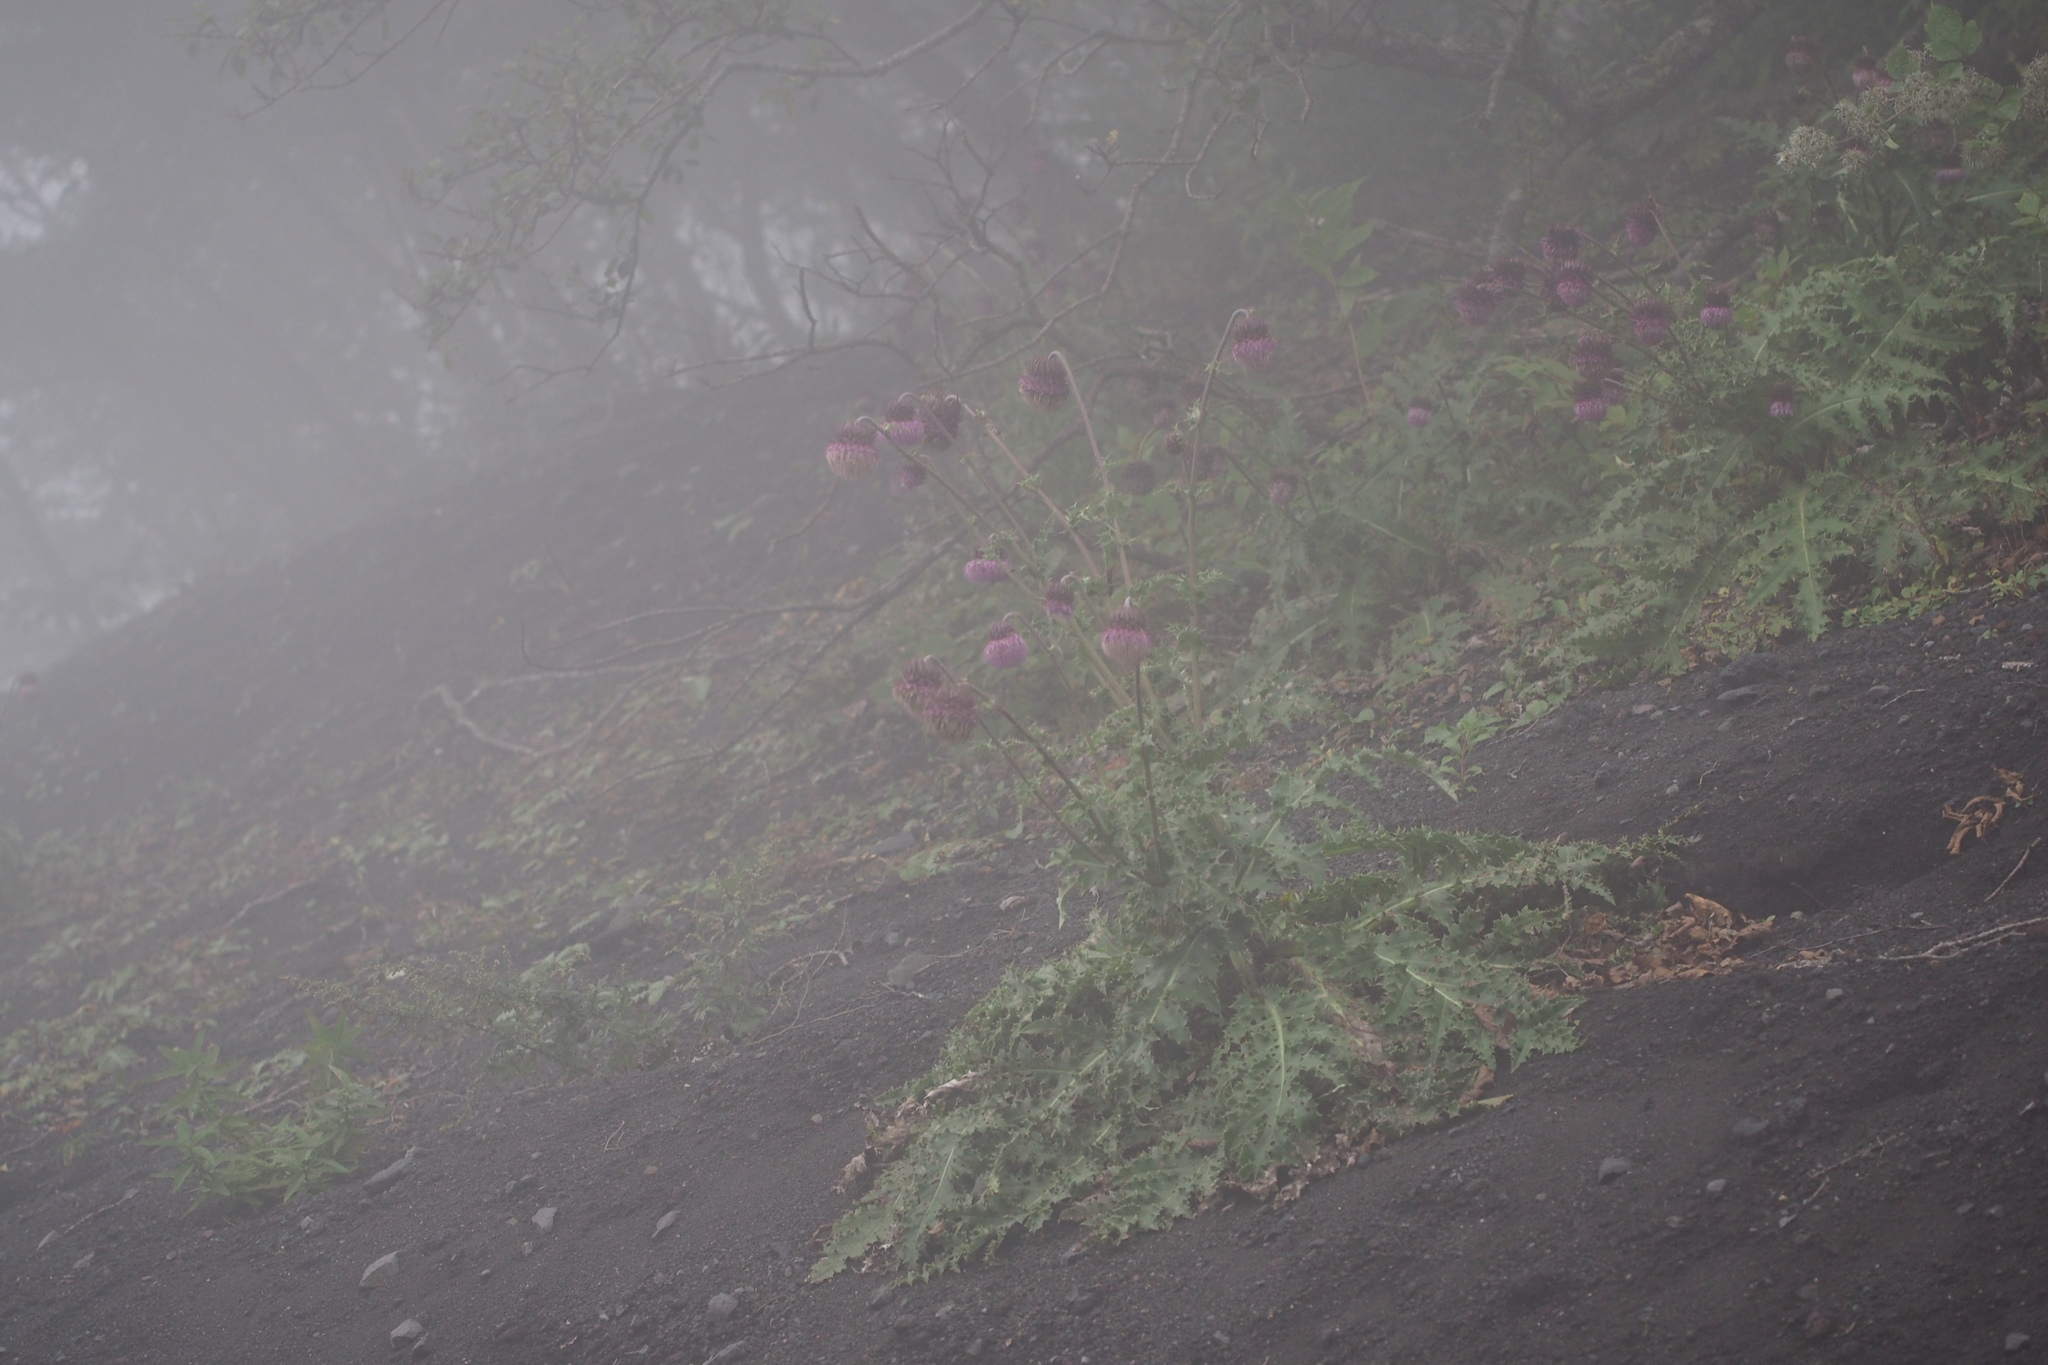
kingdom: Plantae
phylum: Tracheophyta
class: Magnoliopsida
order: Asterales
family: Asteraceae
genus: Cirsium
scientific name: Cirsium purpuratum
